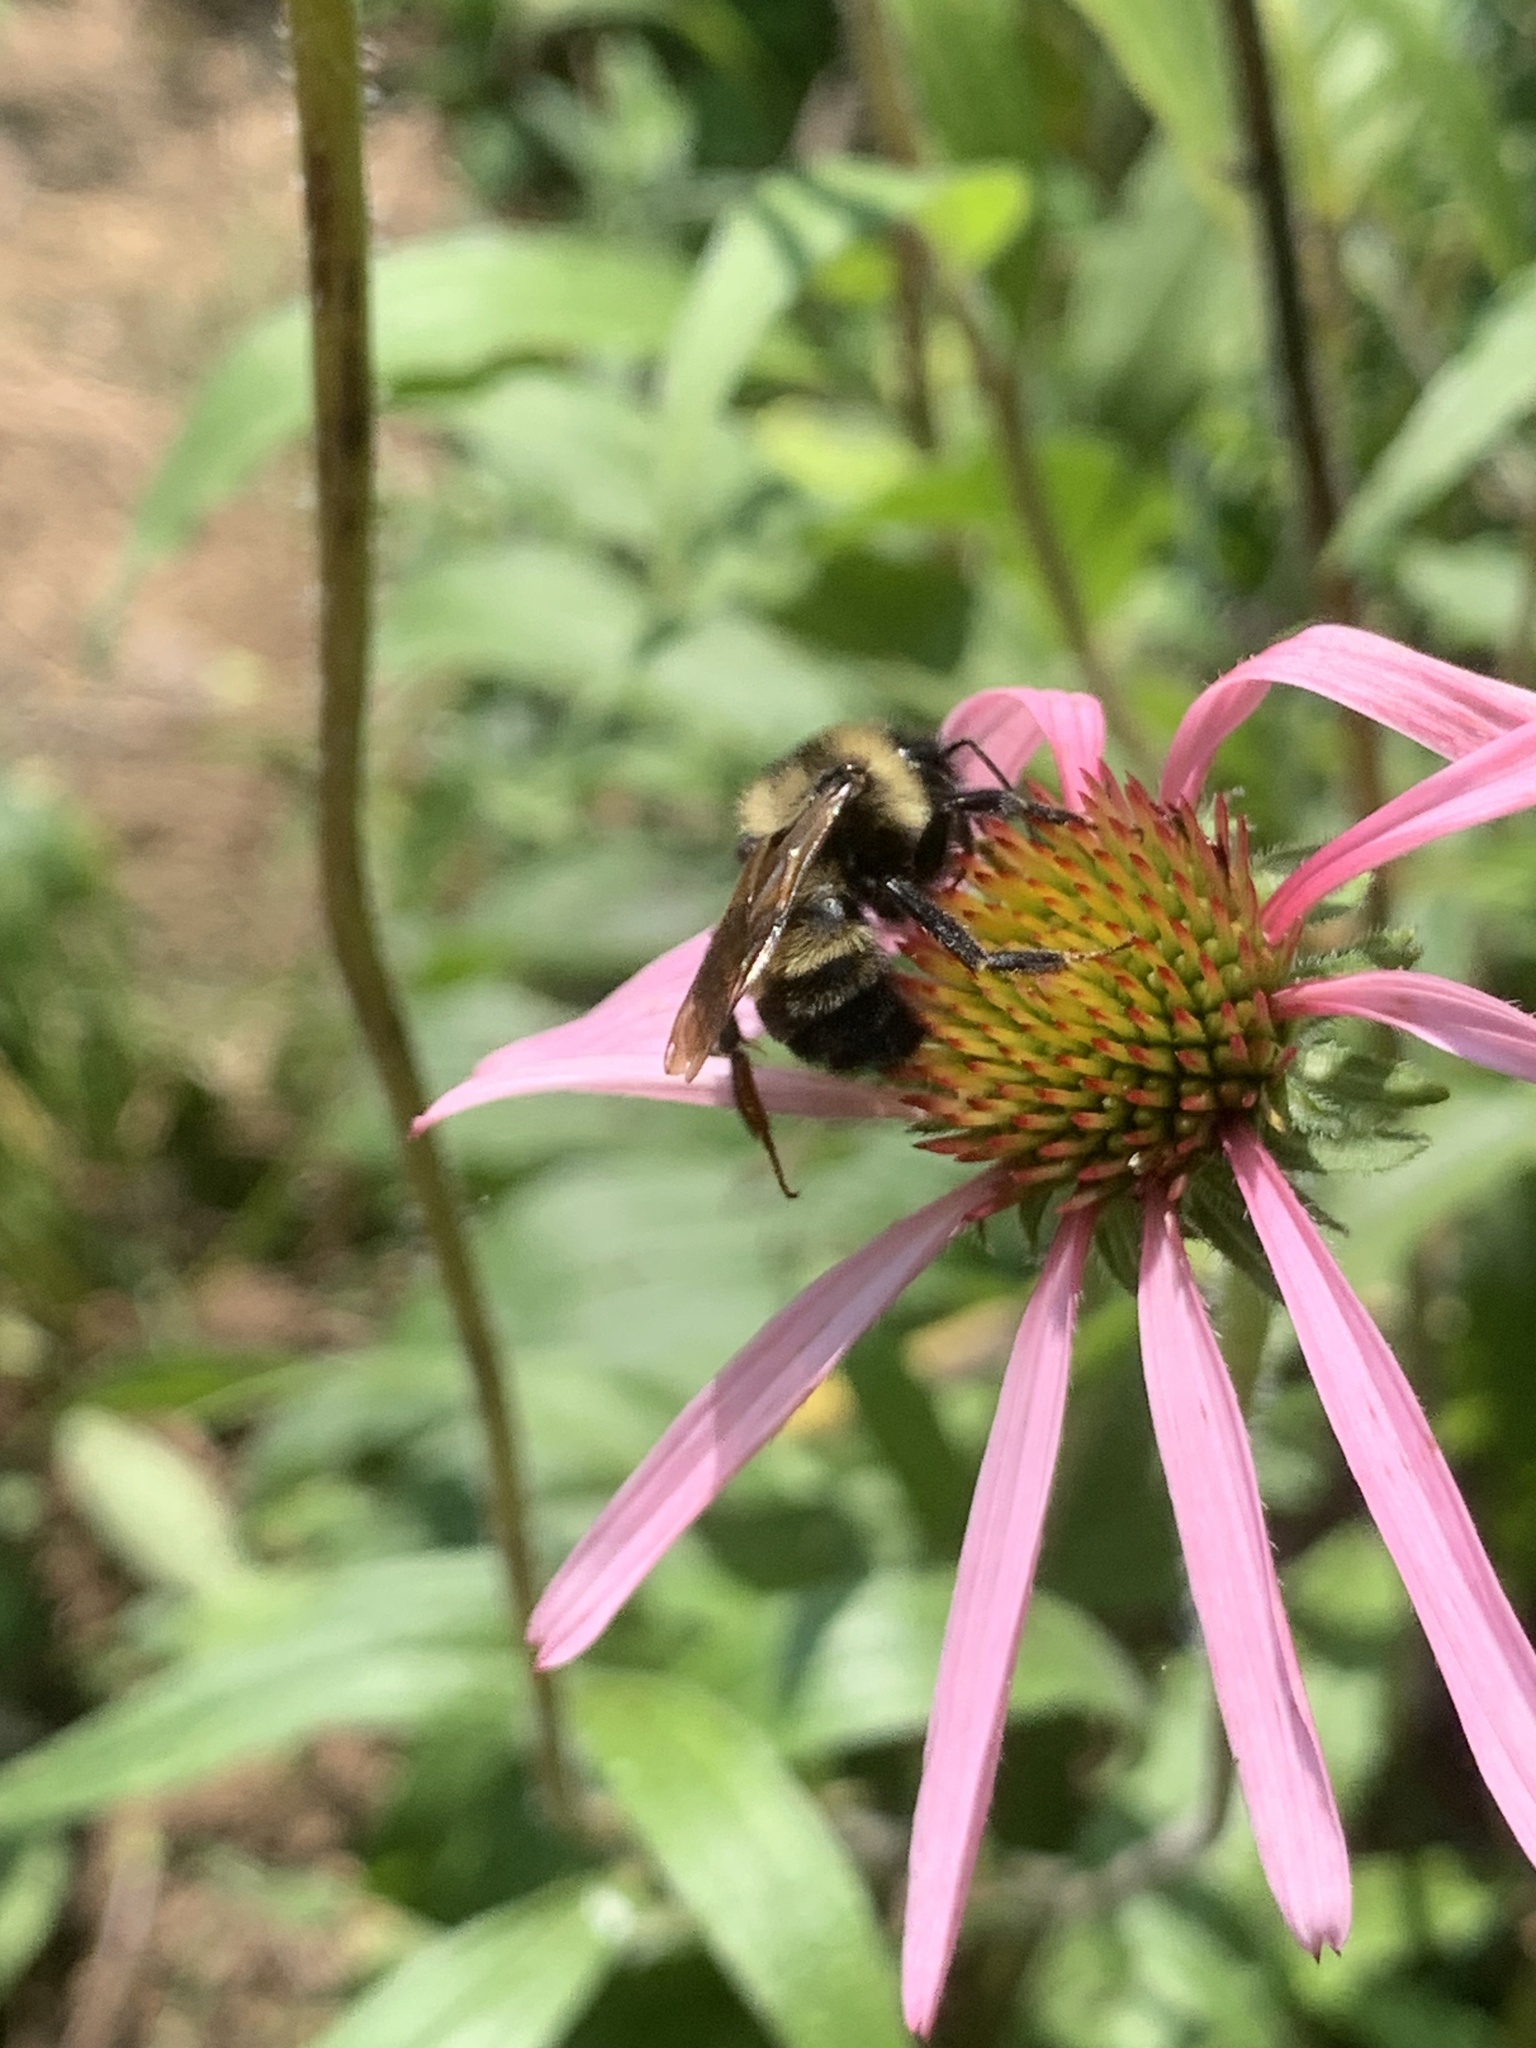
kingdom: Animalia
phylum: Arthropoda
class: Insecta
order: Hymenoptera
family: Apidae
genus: Bombus
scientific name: Bombus citrinus
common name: Lemon cuckoo bumble bee
